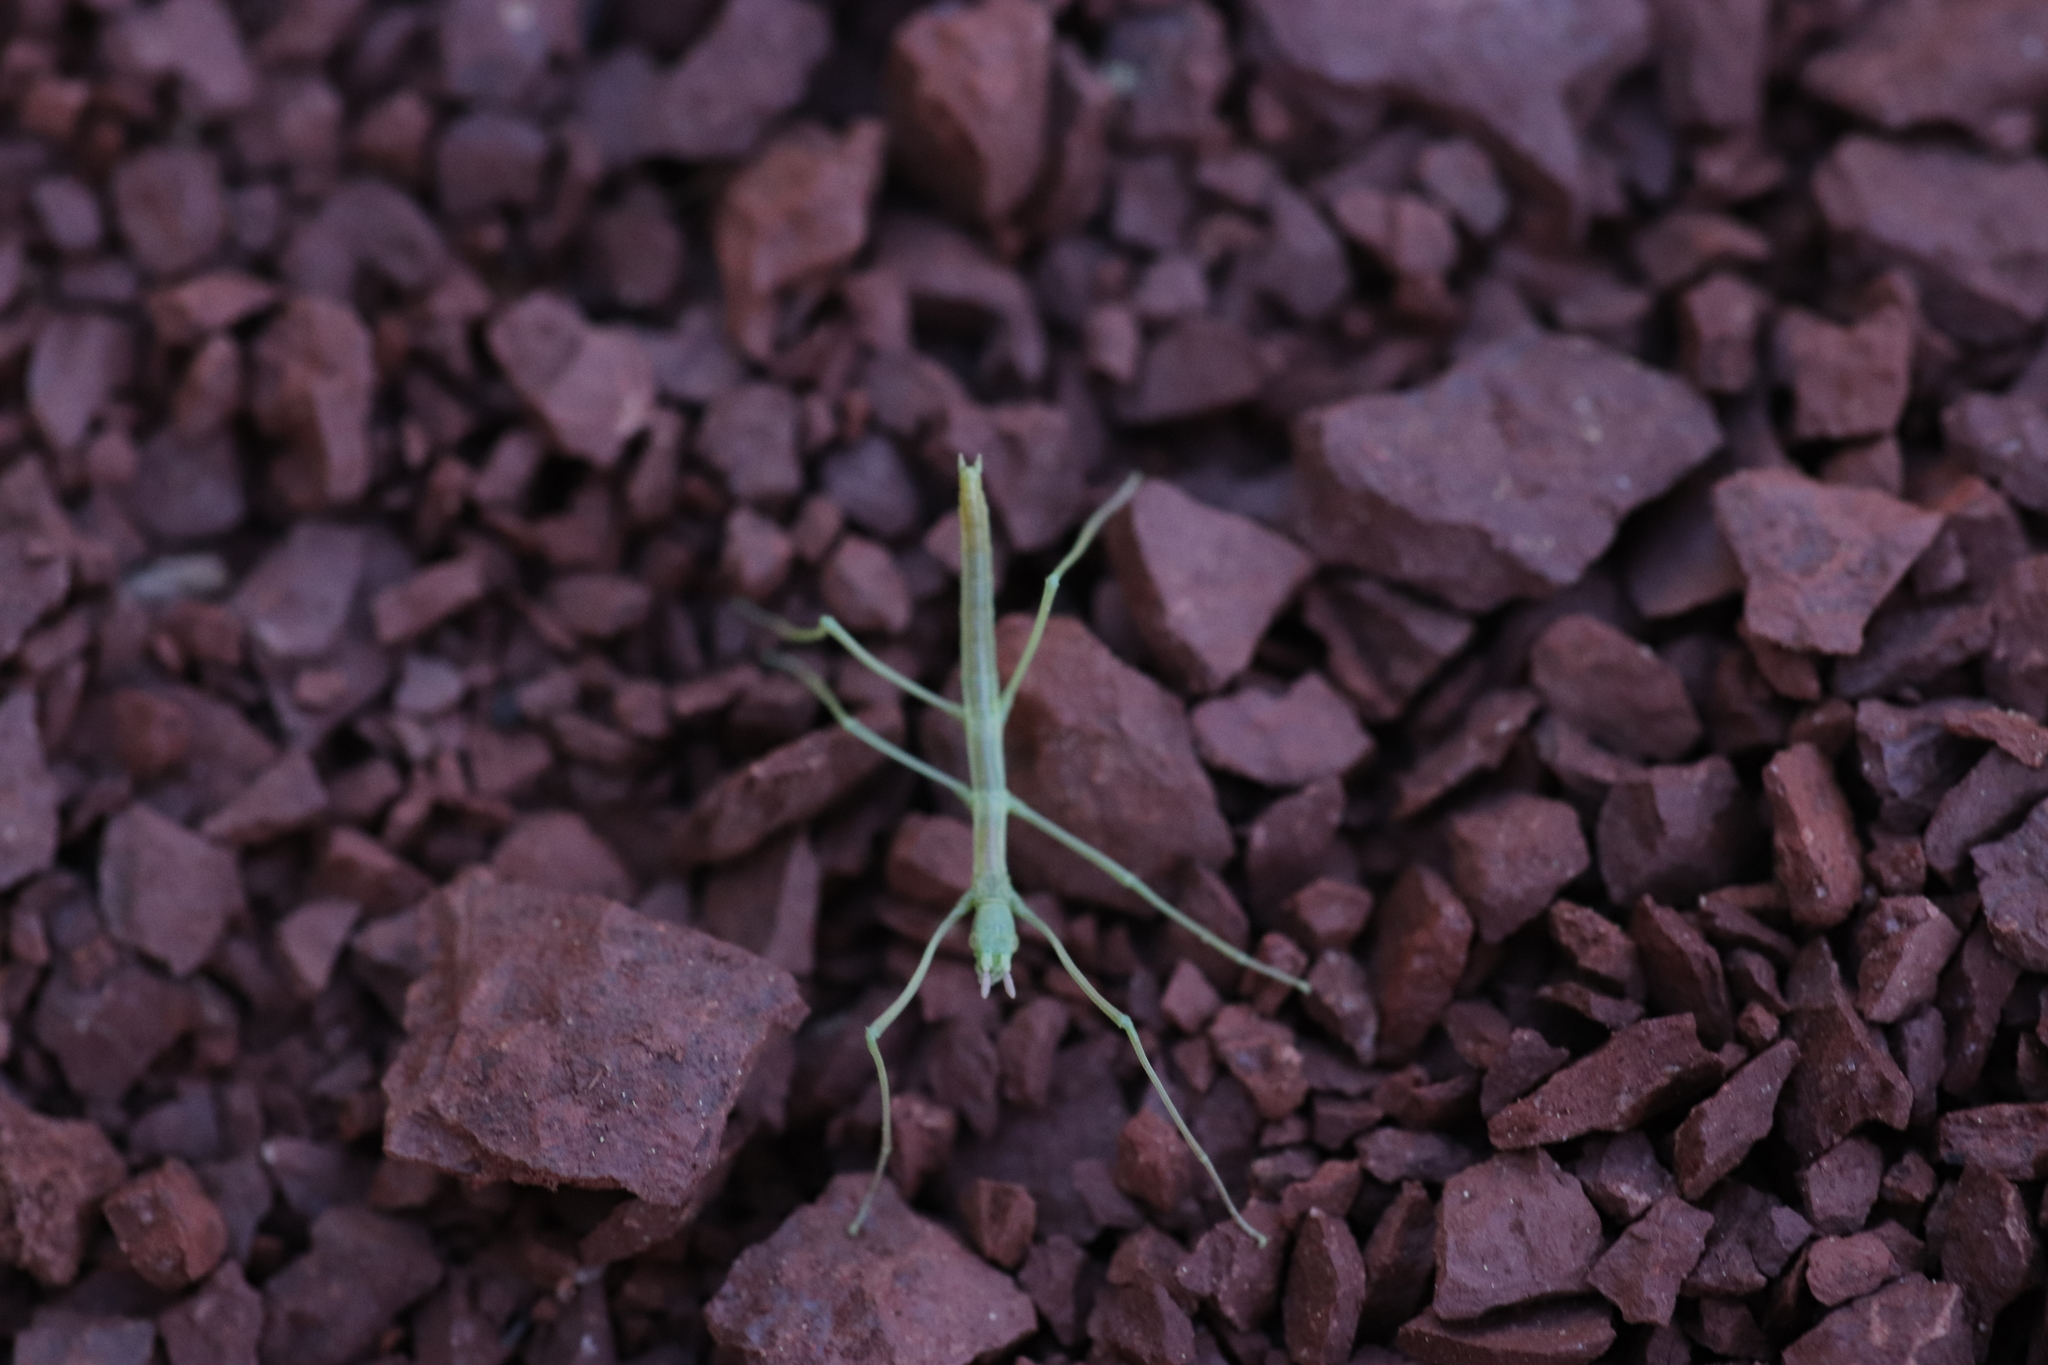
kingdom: Animalia
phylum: Arthropoda
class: Insecta
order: Phasmida
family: Bacillidae
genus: Pijnackeria
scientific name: Pijnackeria masettii
